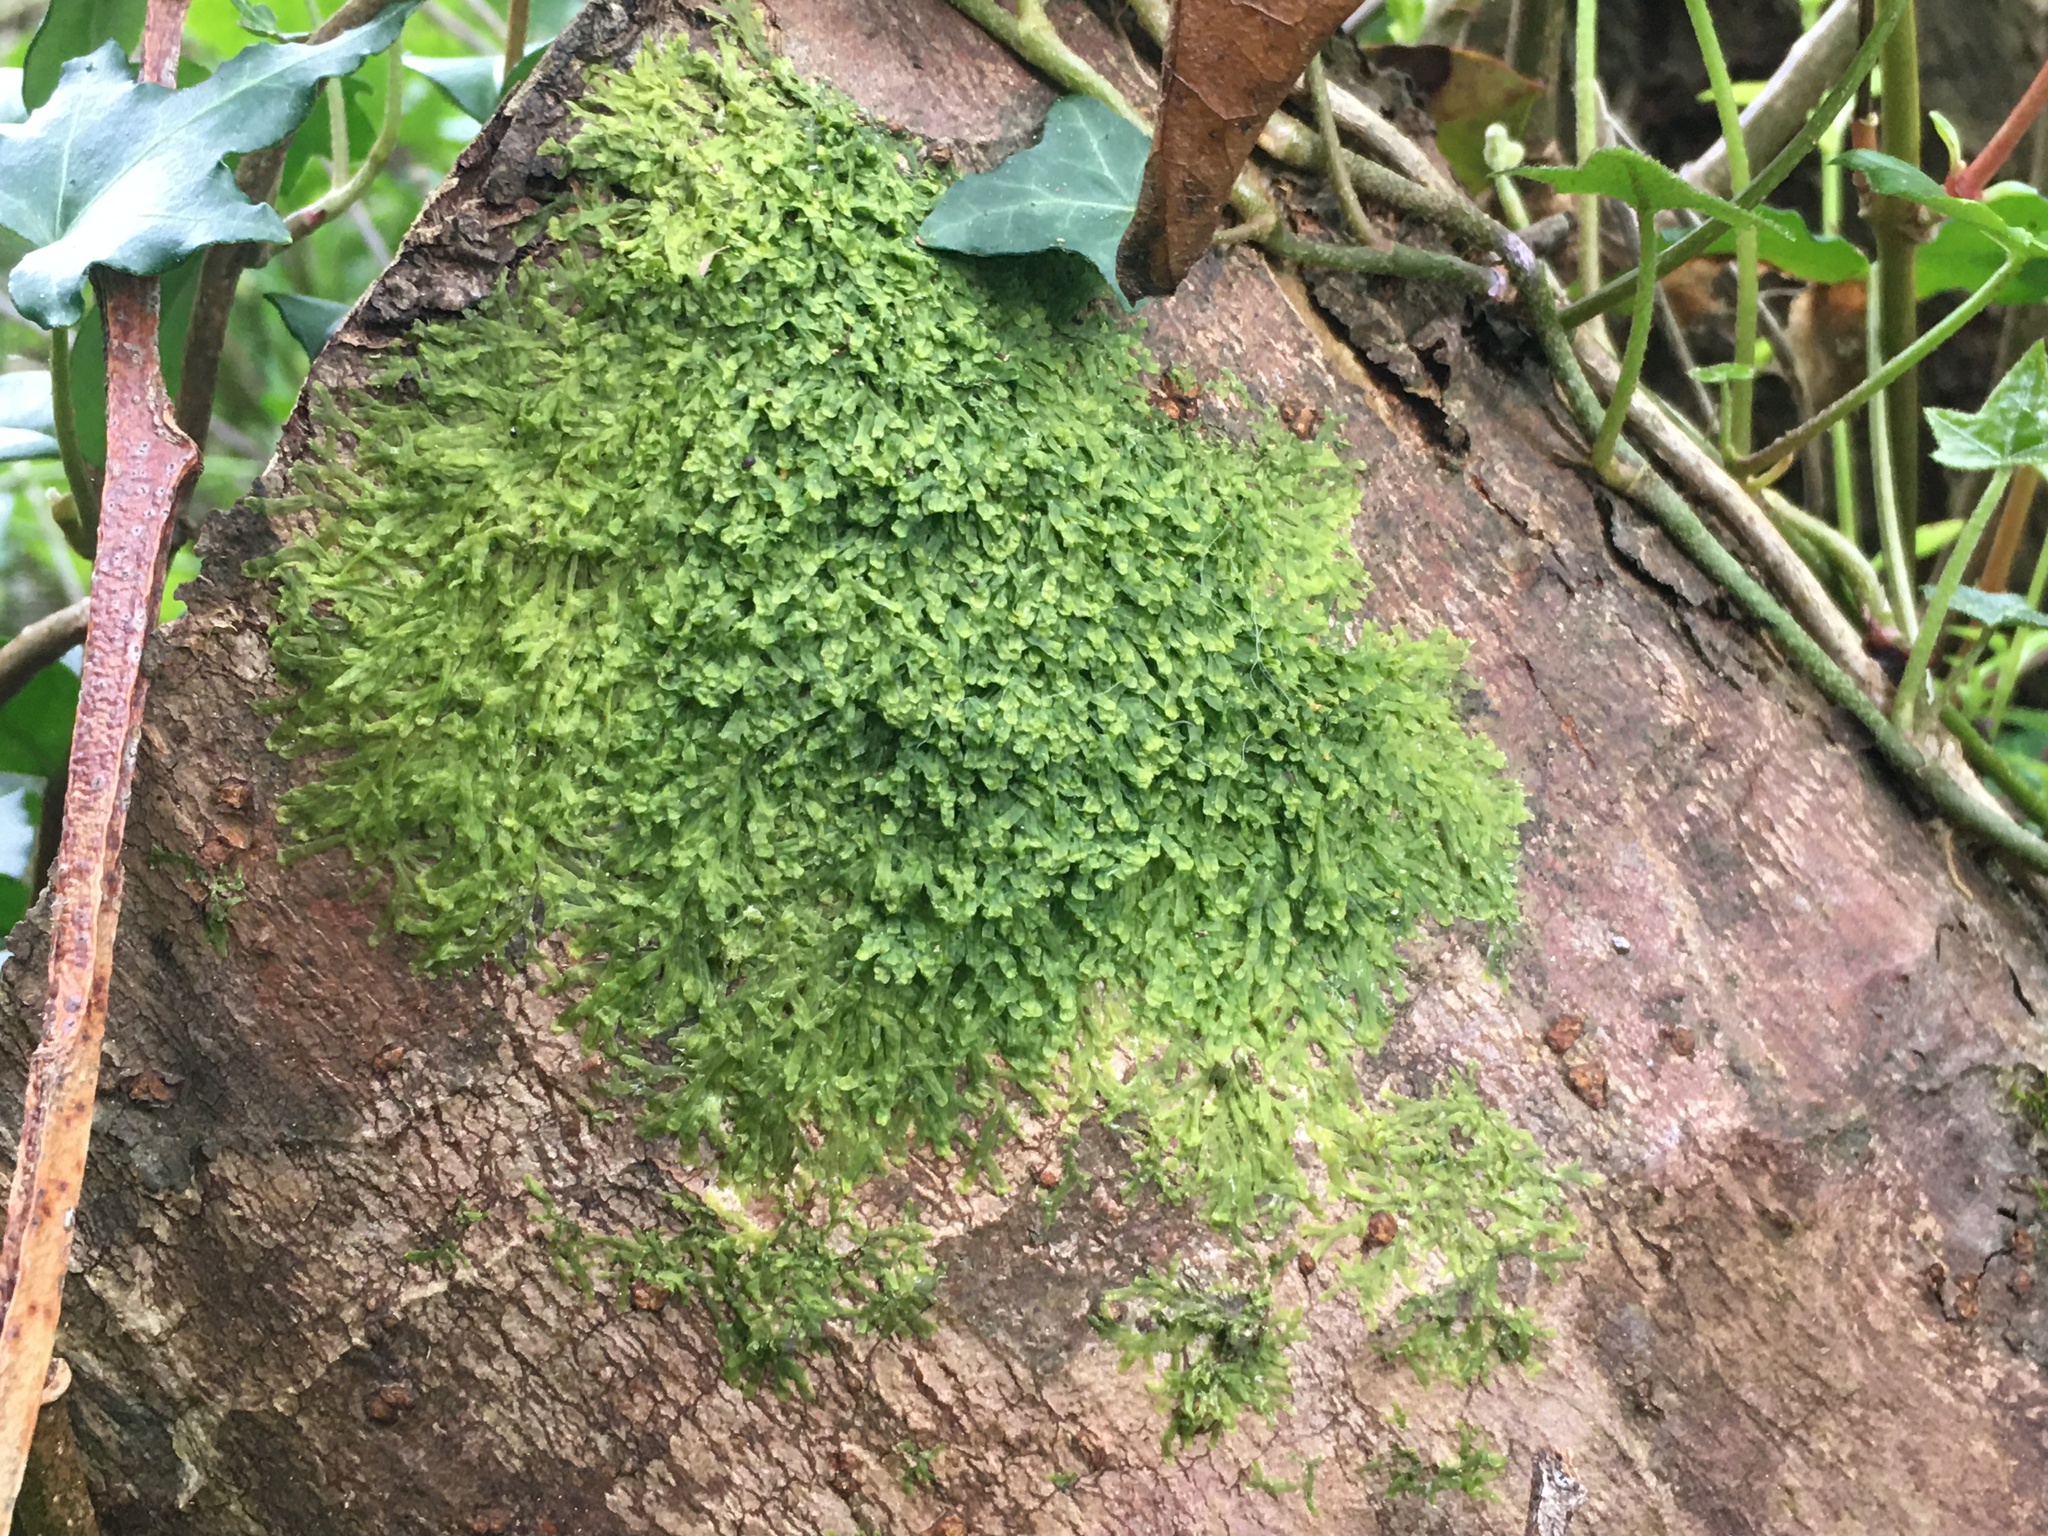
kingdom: Plantae
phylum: Marchantiophyta
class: Jungermanniopsida
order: Metzgeriales
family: Metzgeriaceae
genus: Metzgeria
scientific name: Metzgeria furcata
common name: Forked veilwort
